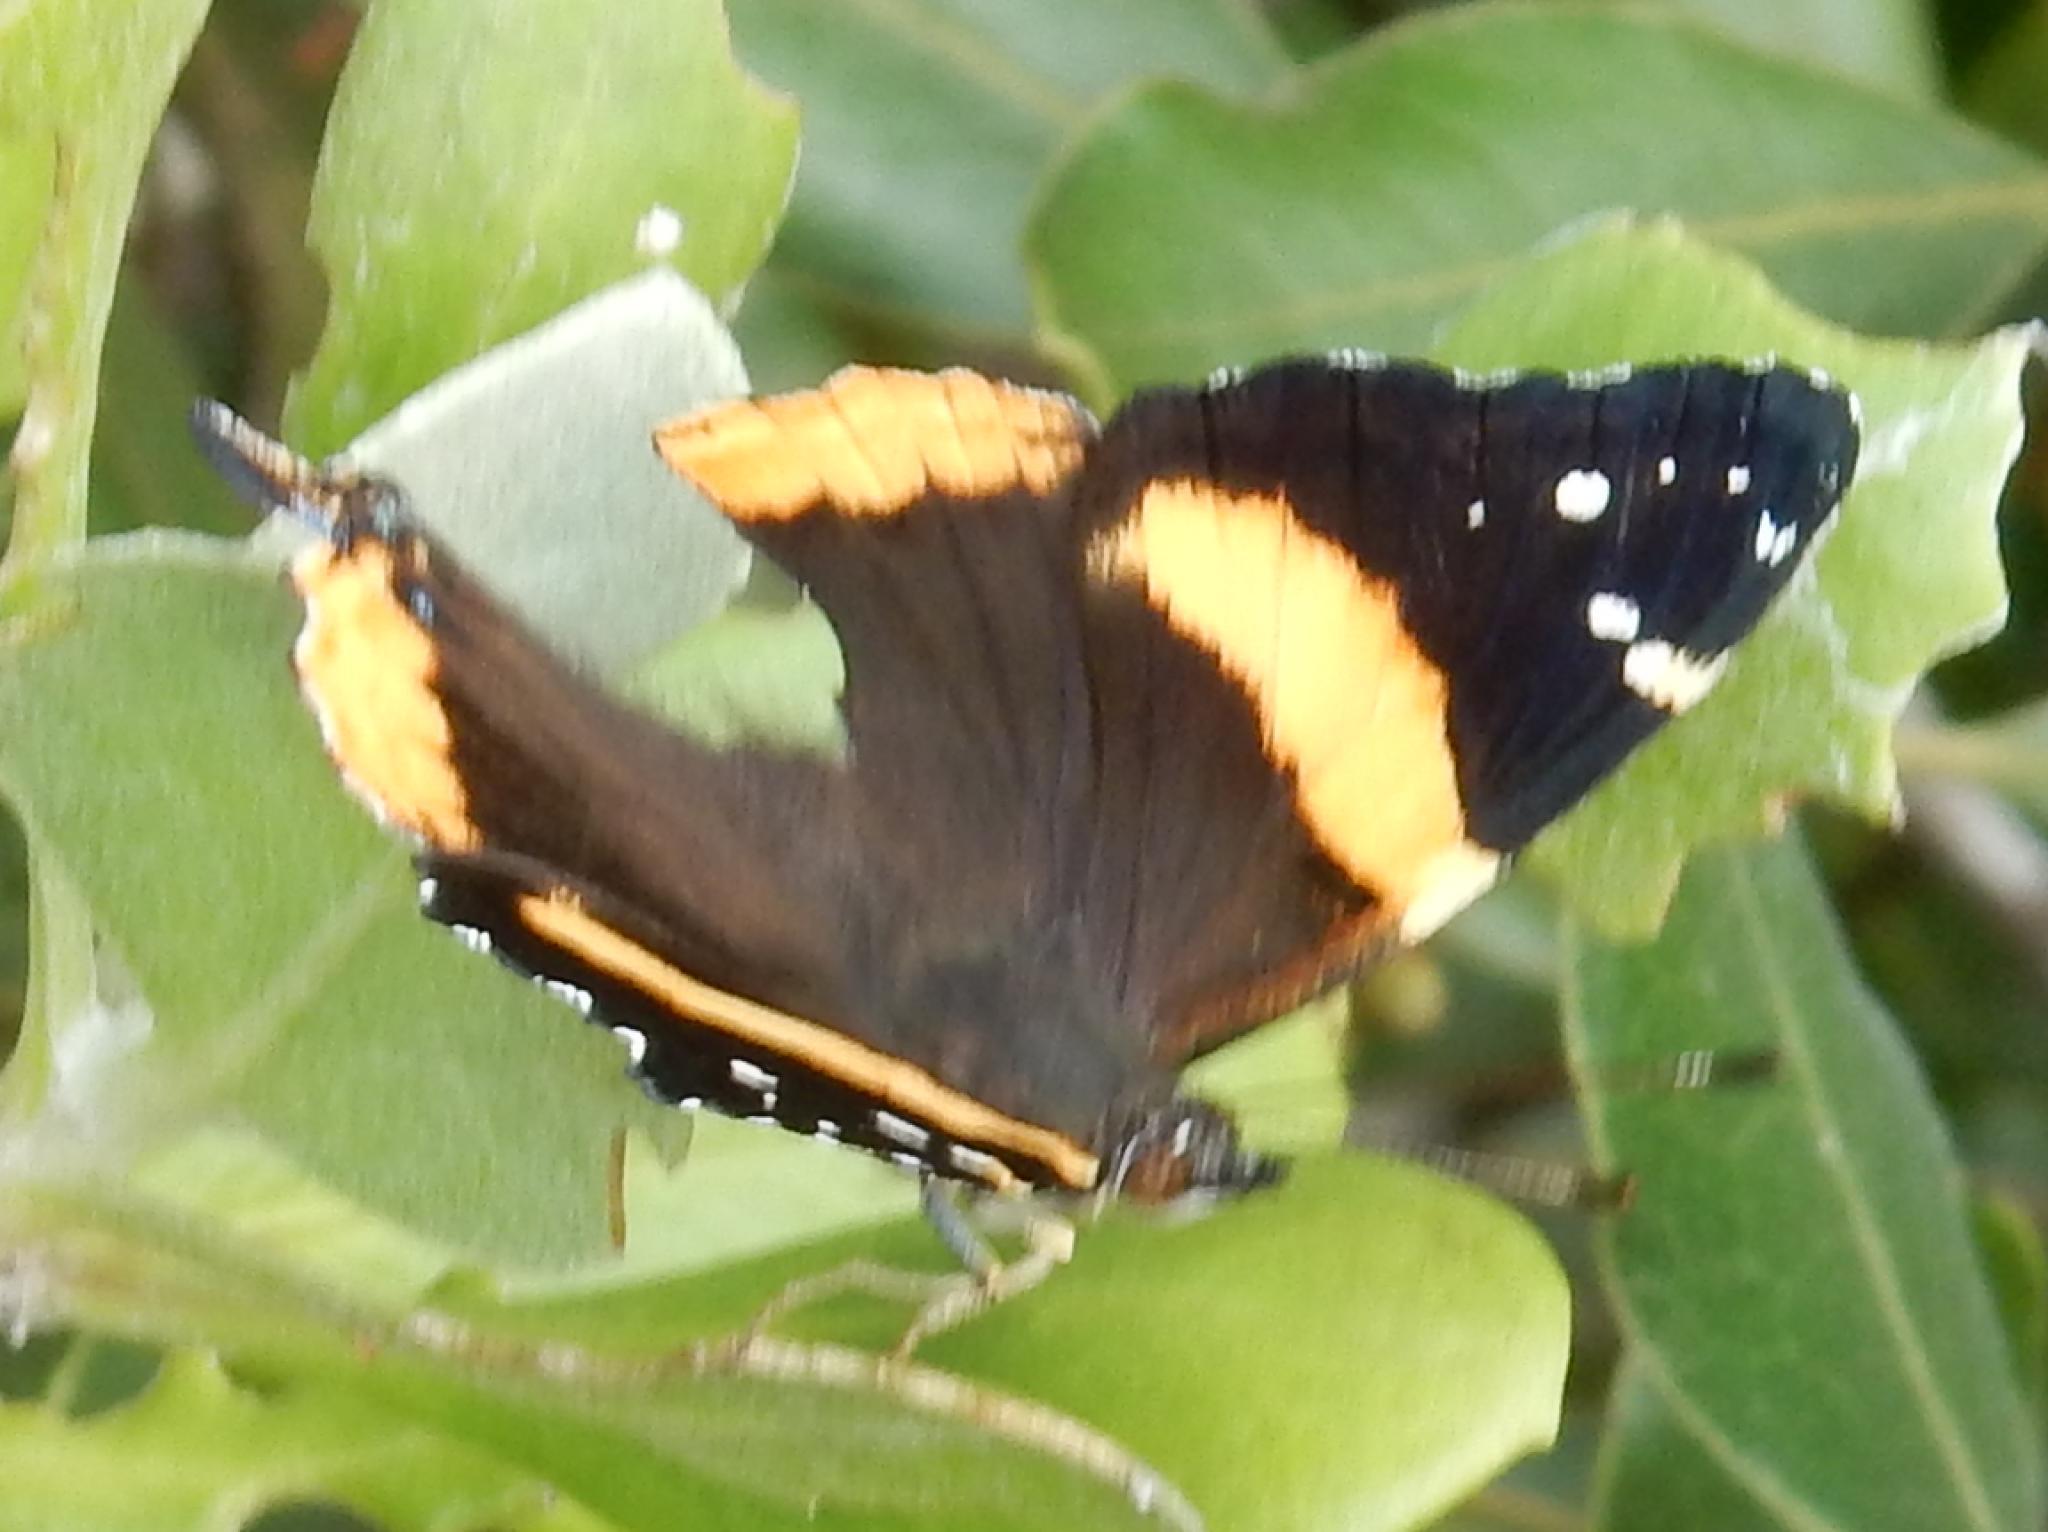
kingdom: Animalia
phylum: Arthropoda
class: Insecta
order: Lepidoptera
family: Nymphalidae
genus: Antanartia
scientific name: Antanartia hippomene
